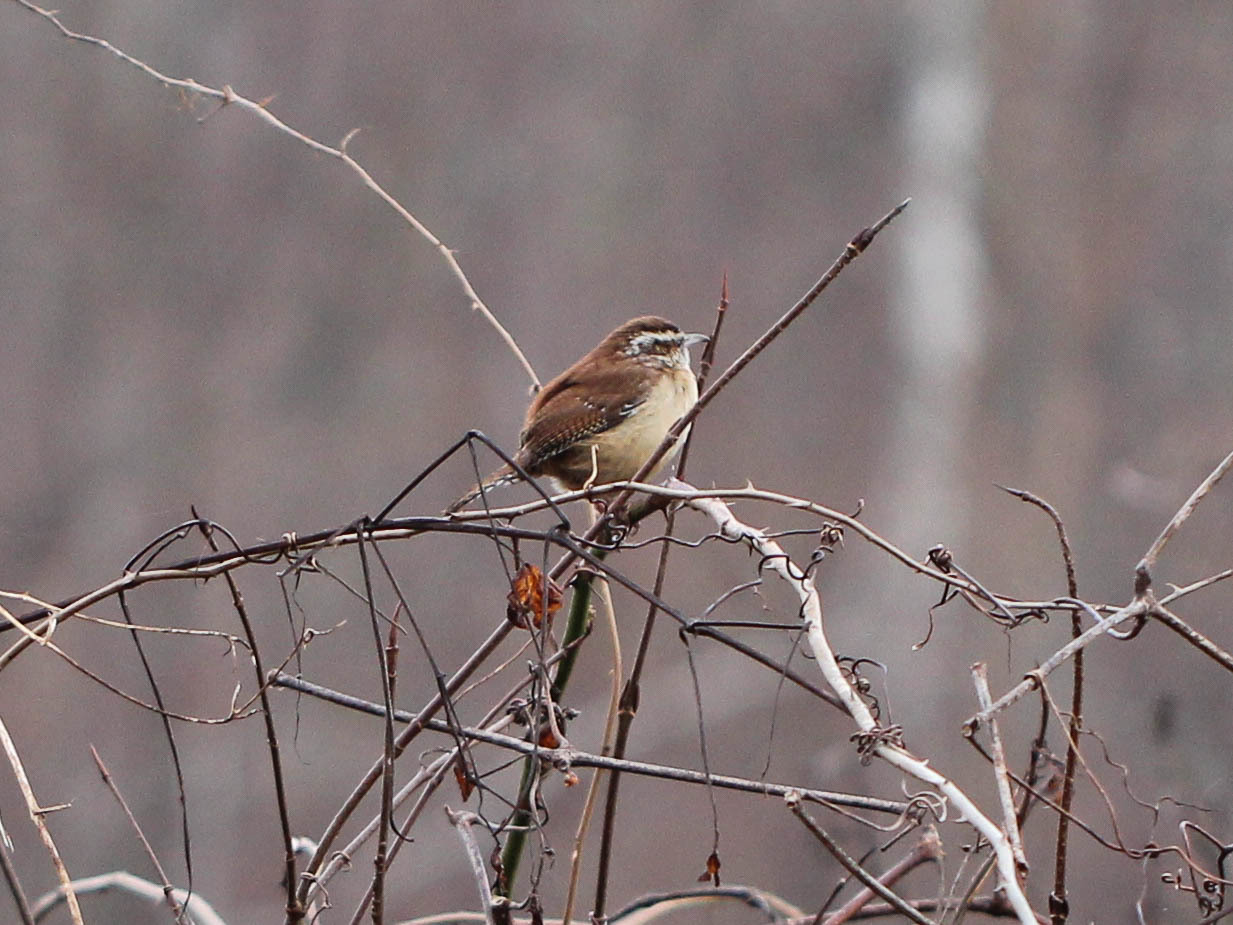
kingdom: Animalia
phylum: Chordata
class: Aves
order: Passeriformes
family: Troglodytidae
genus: Thryothorus
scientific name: Thryothorus ludovicianus
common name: Carolina wren
